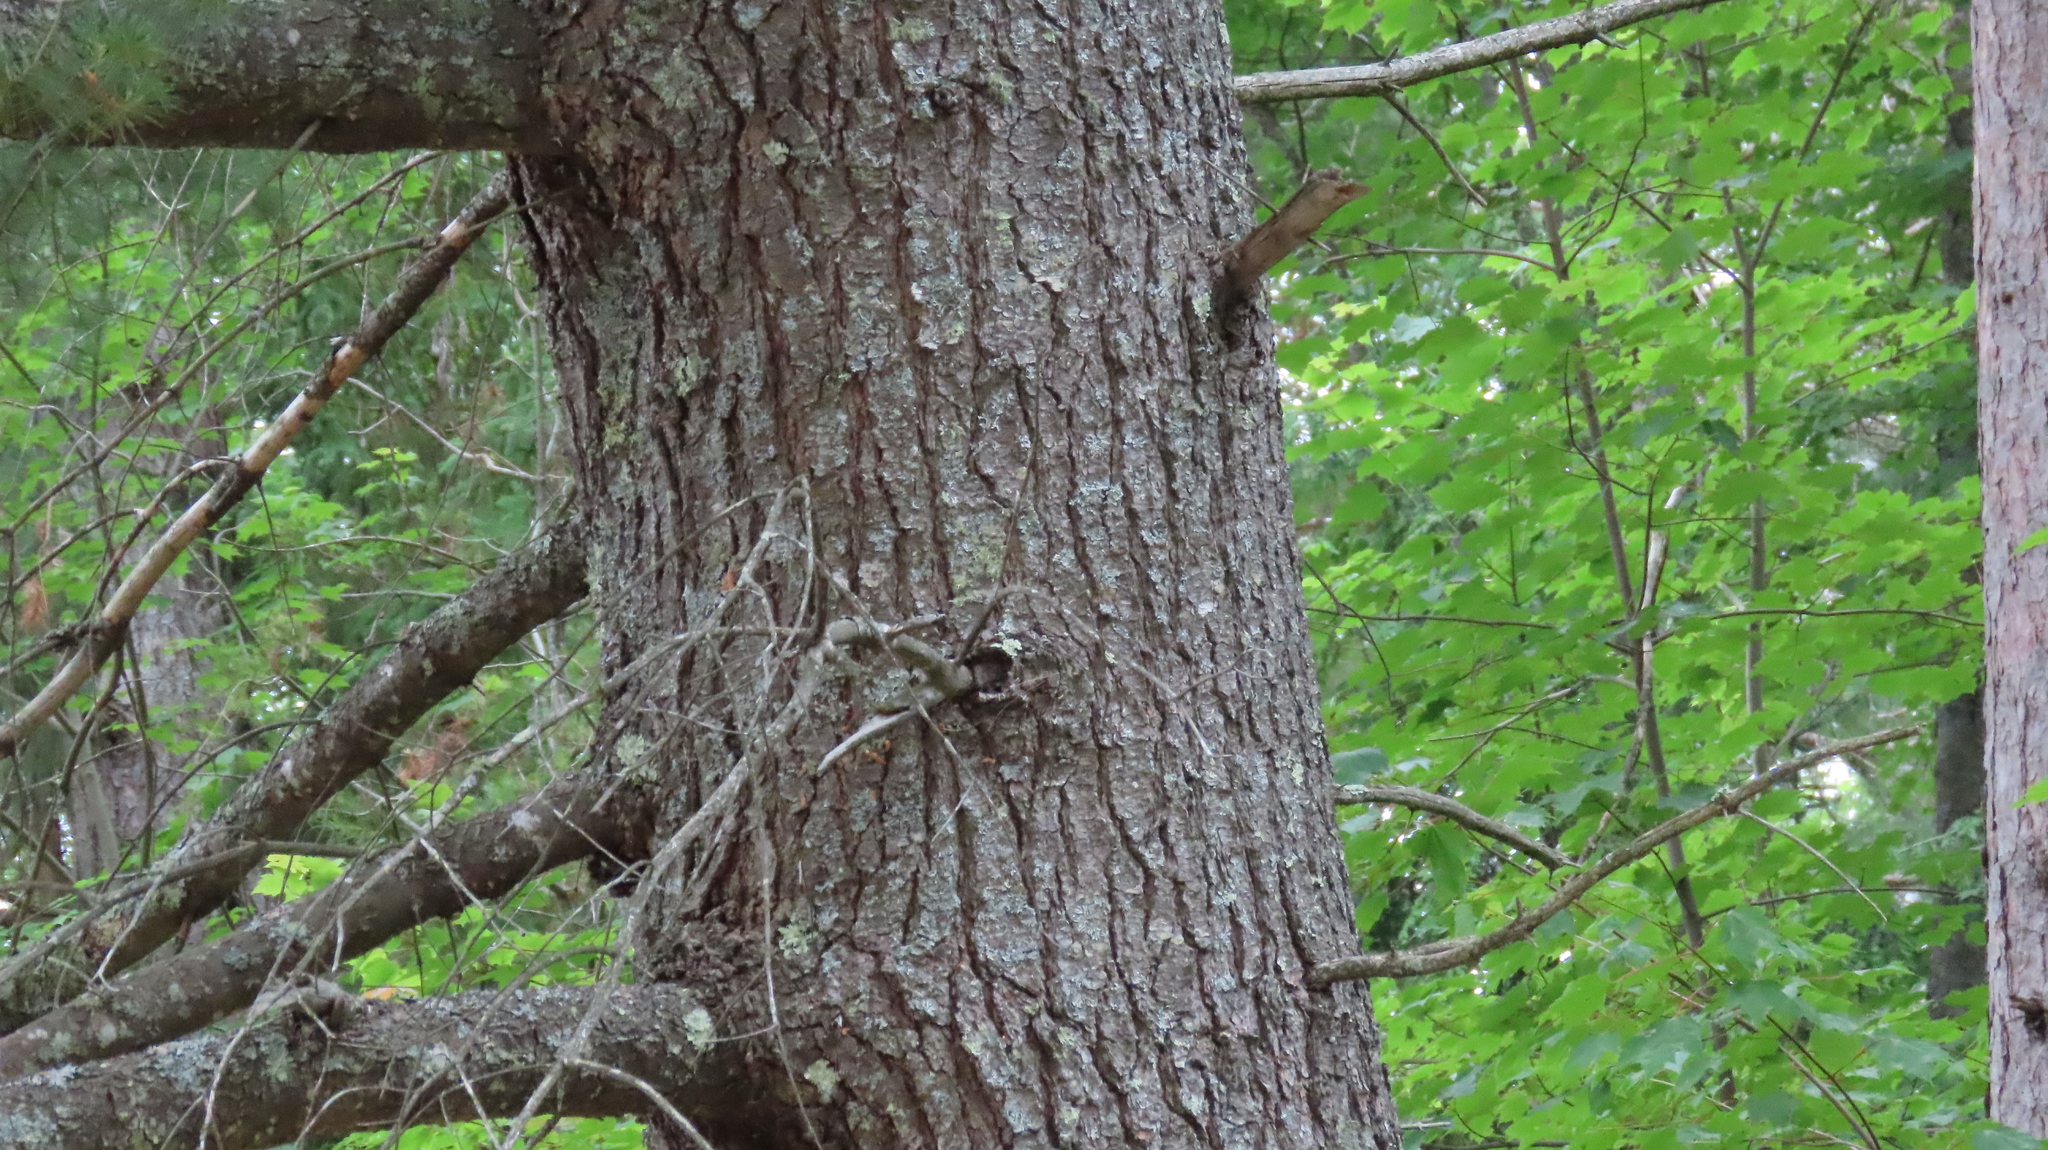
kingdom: Plantae
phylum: Tracheophyta
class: Pinopsida
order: Pinales
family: Pinaceae
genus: Pinus
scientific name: Pinus strobus
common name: Weymouth pine
